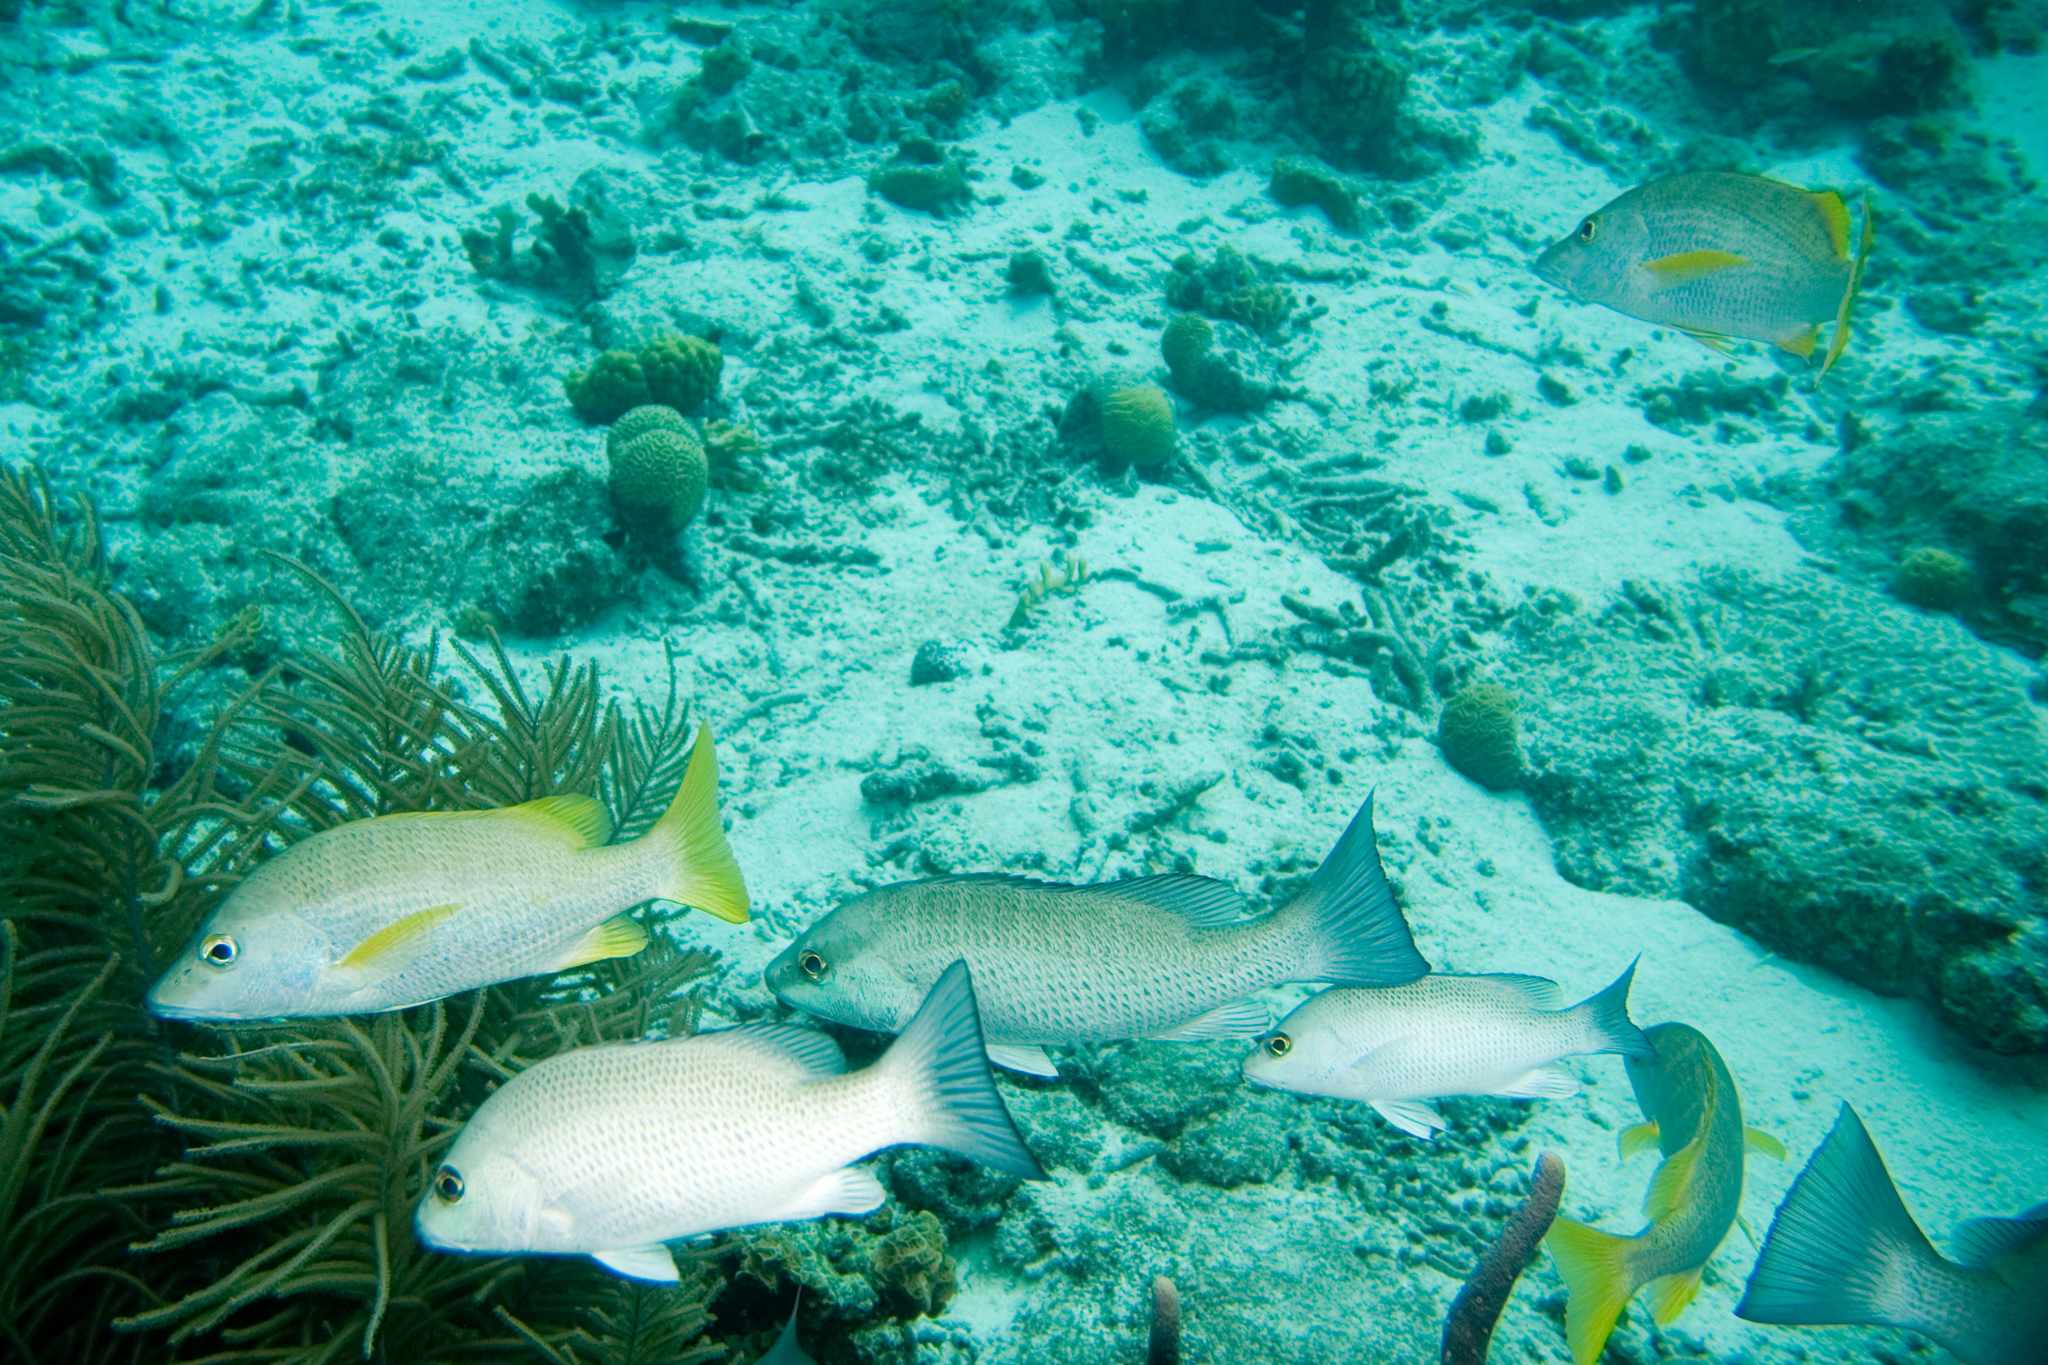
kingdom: Animalia
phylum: Chordata
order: Perciformes
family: Lutjanidae
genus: Lutjanus
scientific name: Lutjanus apodus
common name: Schoolmaster
